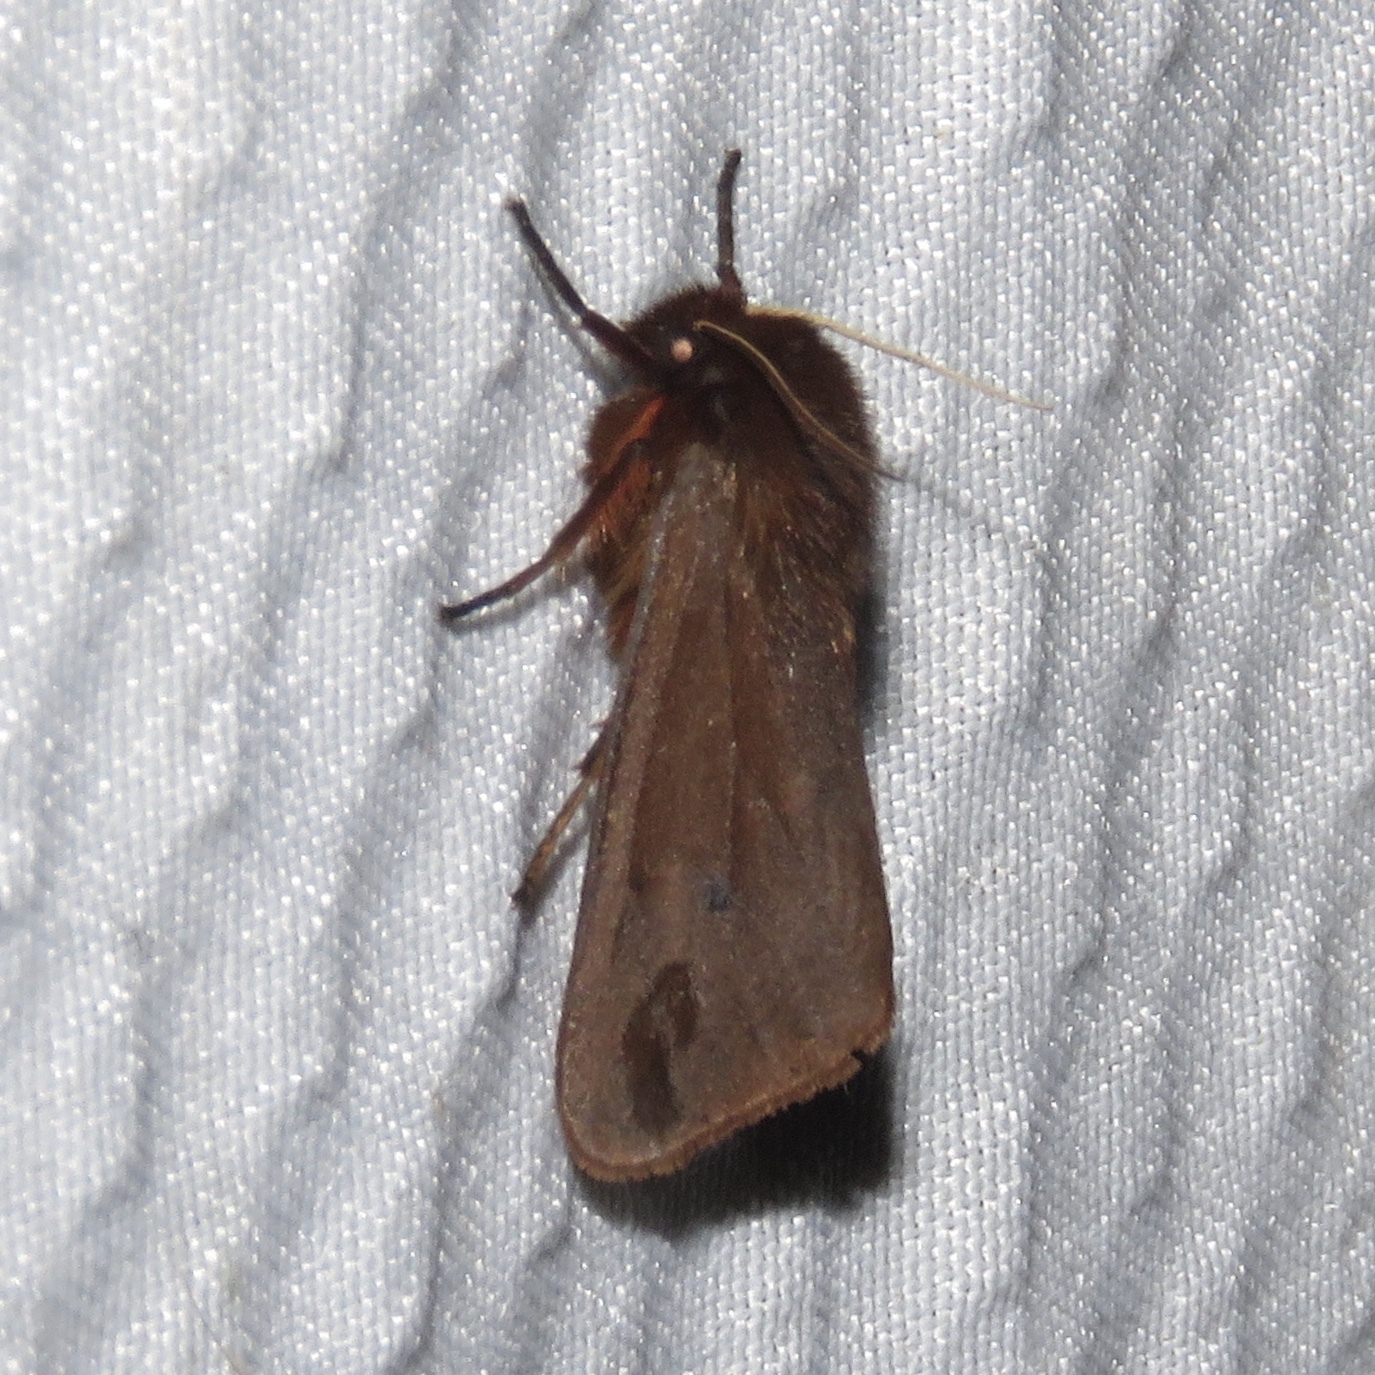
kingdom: Animalia
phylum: Arthropoda
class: Insecta
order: Lepidoptera
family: Erebidae
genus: Phragmatobia
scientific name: Phragmatobia fuliginosa
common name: Ruby tiger
